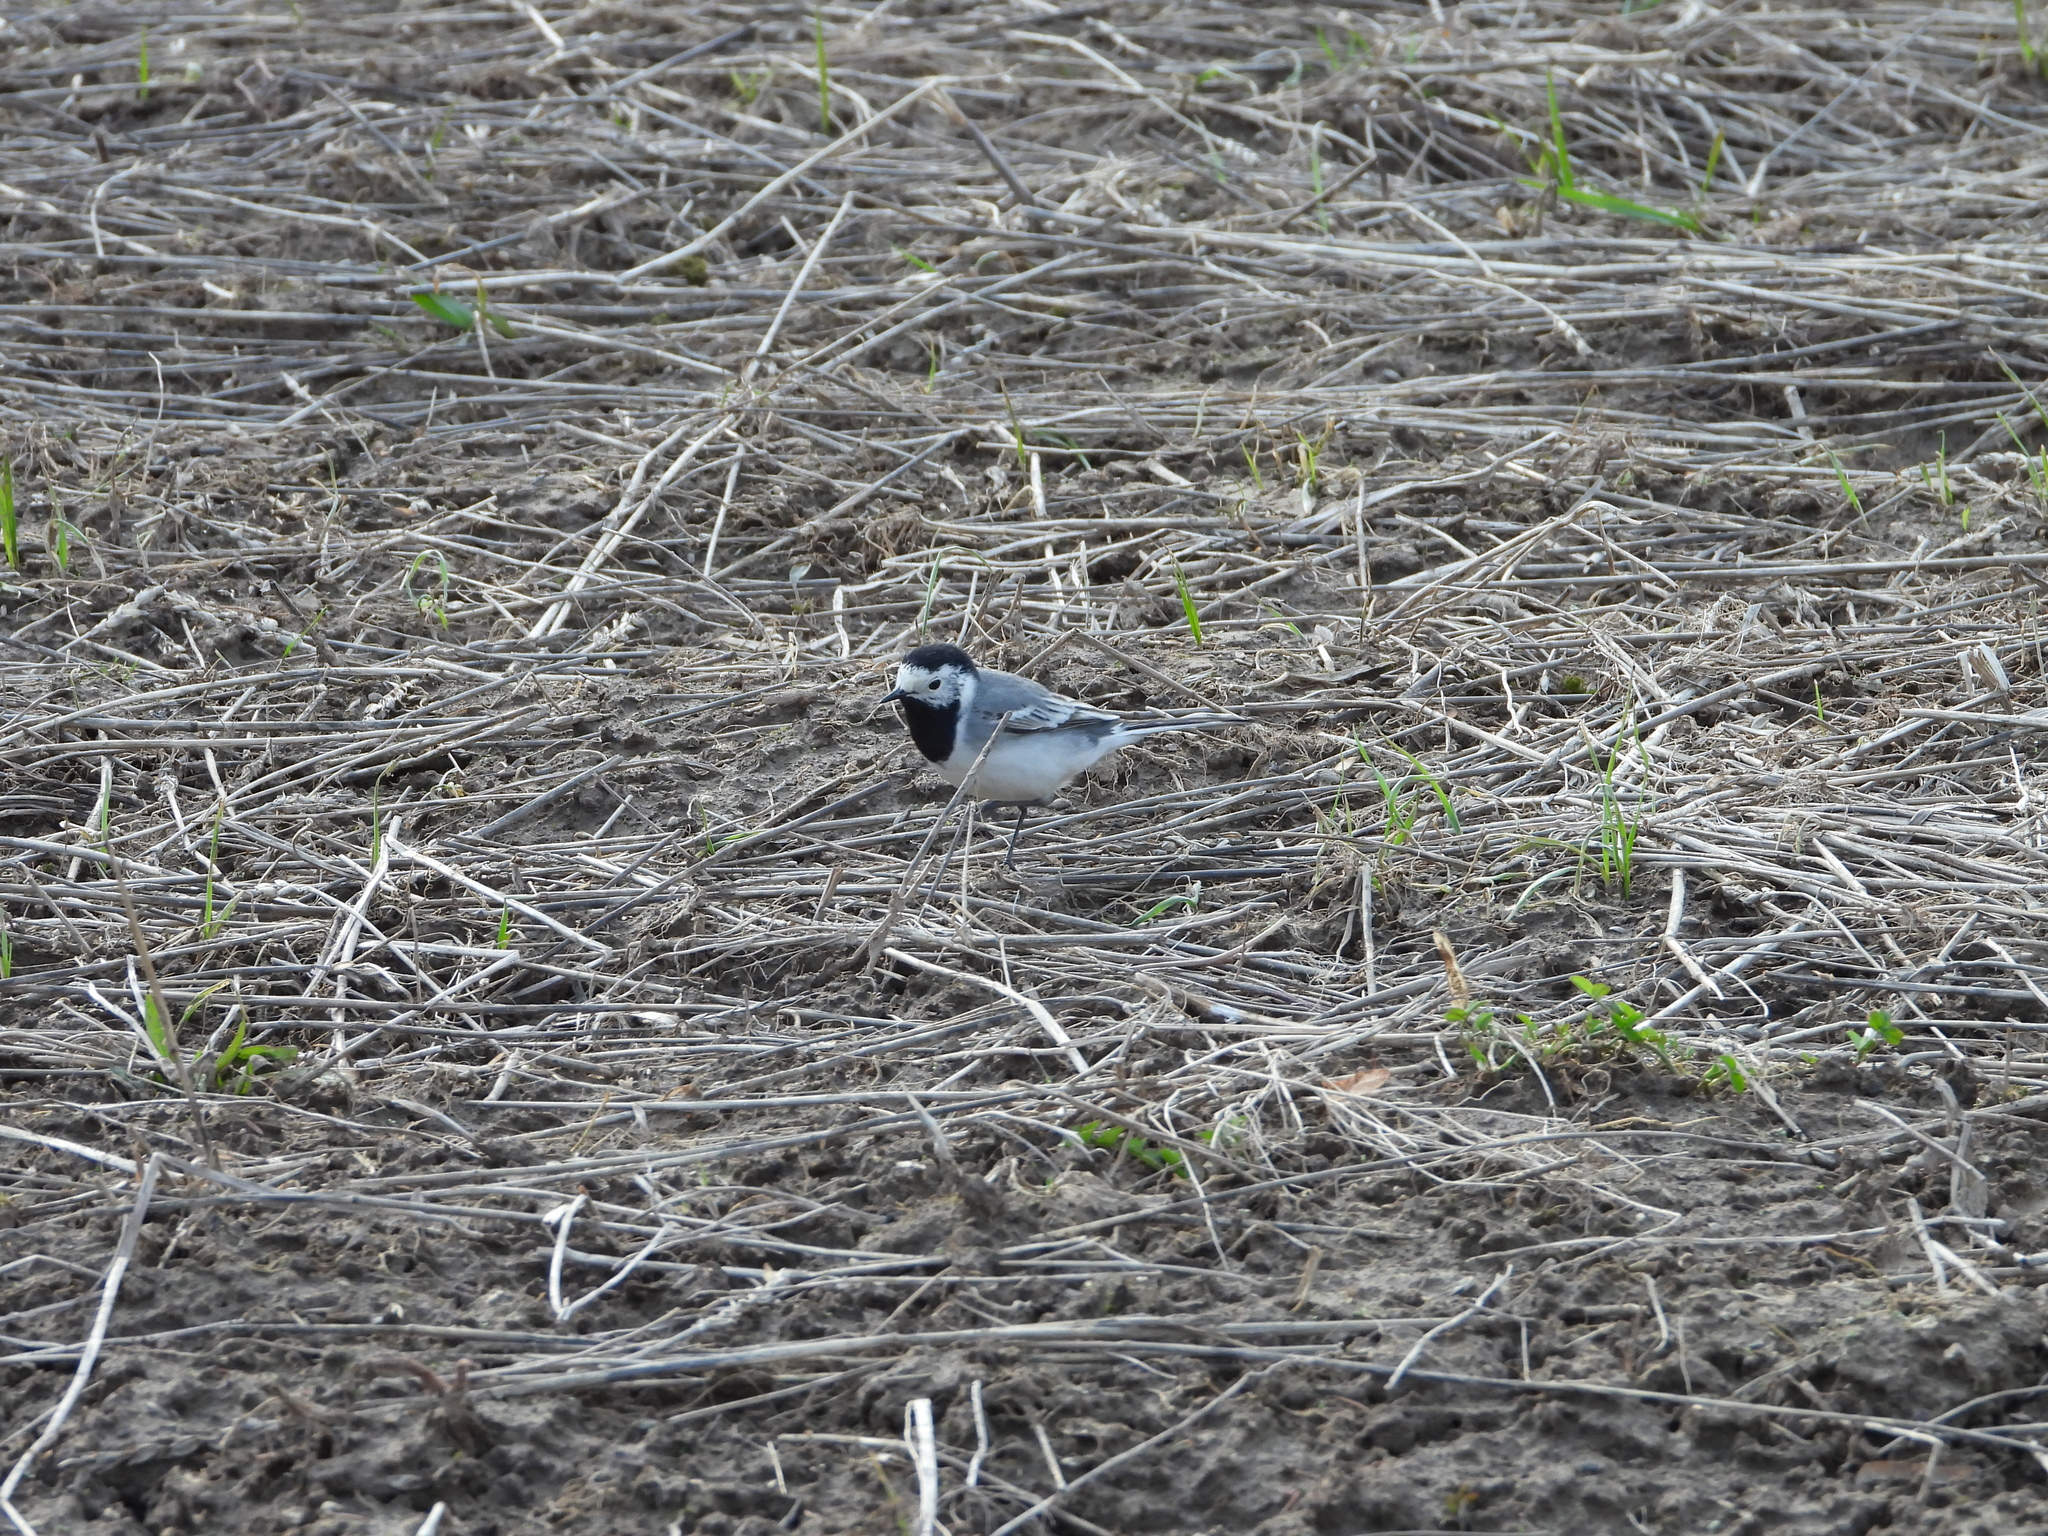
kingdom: Animalia
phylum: Chordata
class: Aves
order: Passeriformes
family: Motacillidae
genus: Motacilla
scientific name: Motacilla alba
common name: White wagtail
